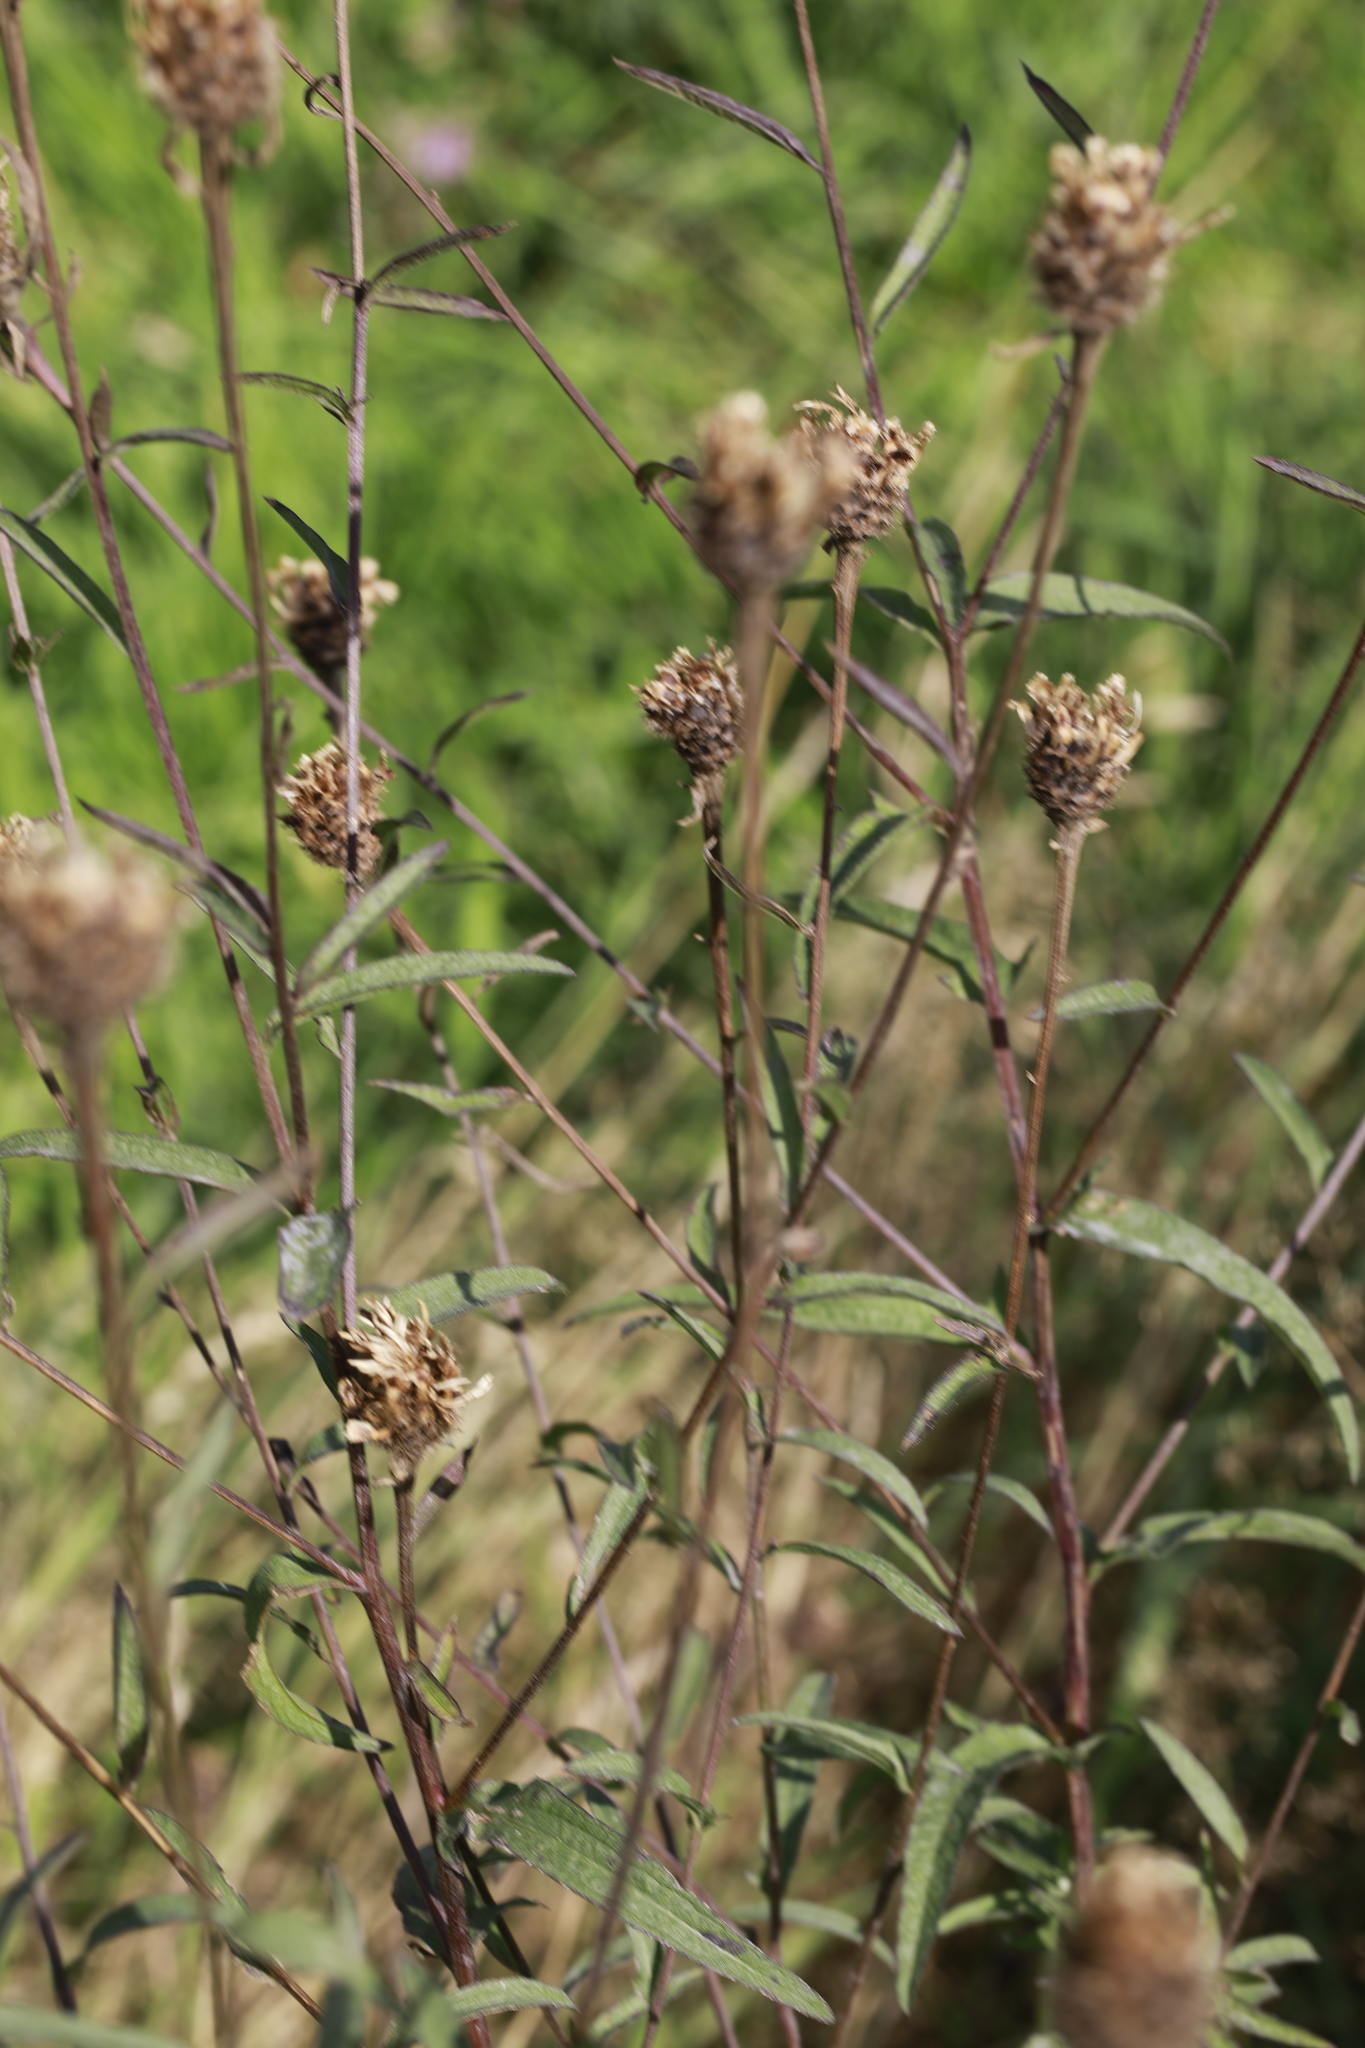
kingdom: Plantae
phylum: Tracheophyta
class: Magnoliopsida
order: Asterales
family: Asteraceae
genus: Centaurea
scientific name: Centaurea nigra
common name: Lesser knapweed
